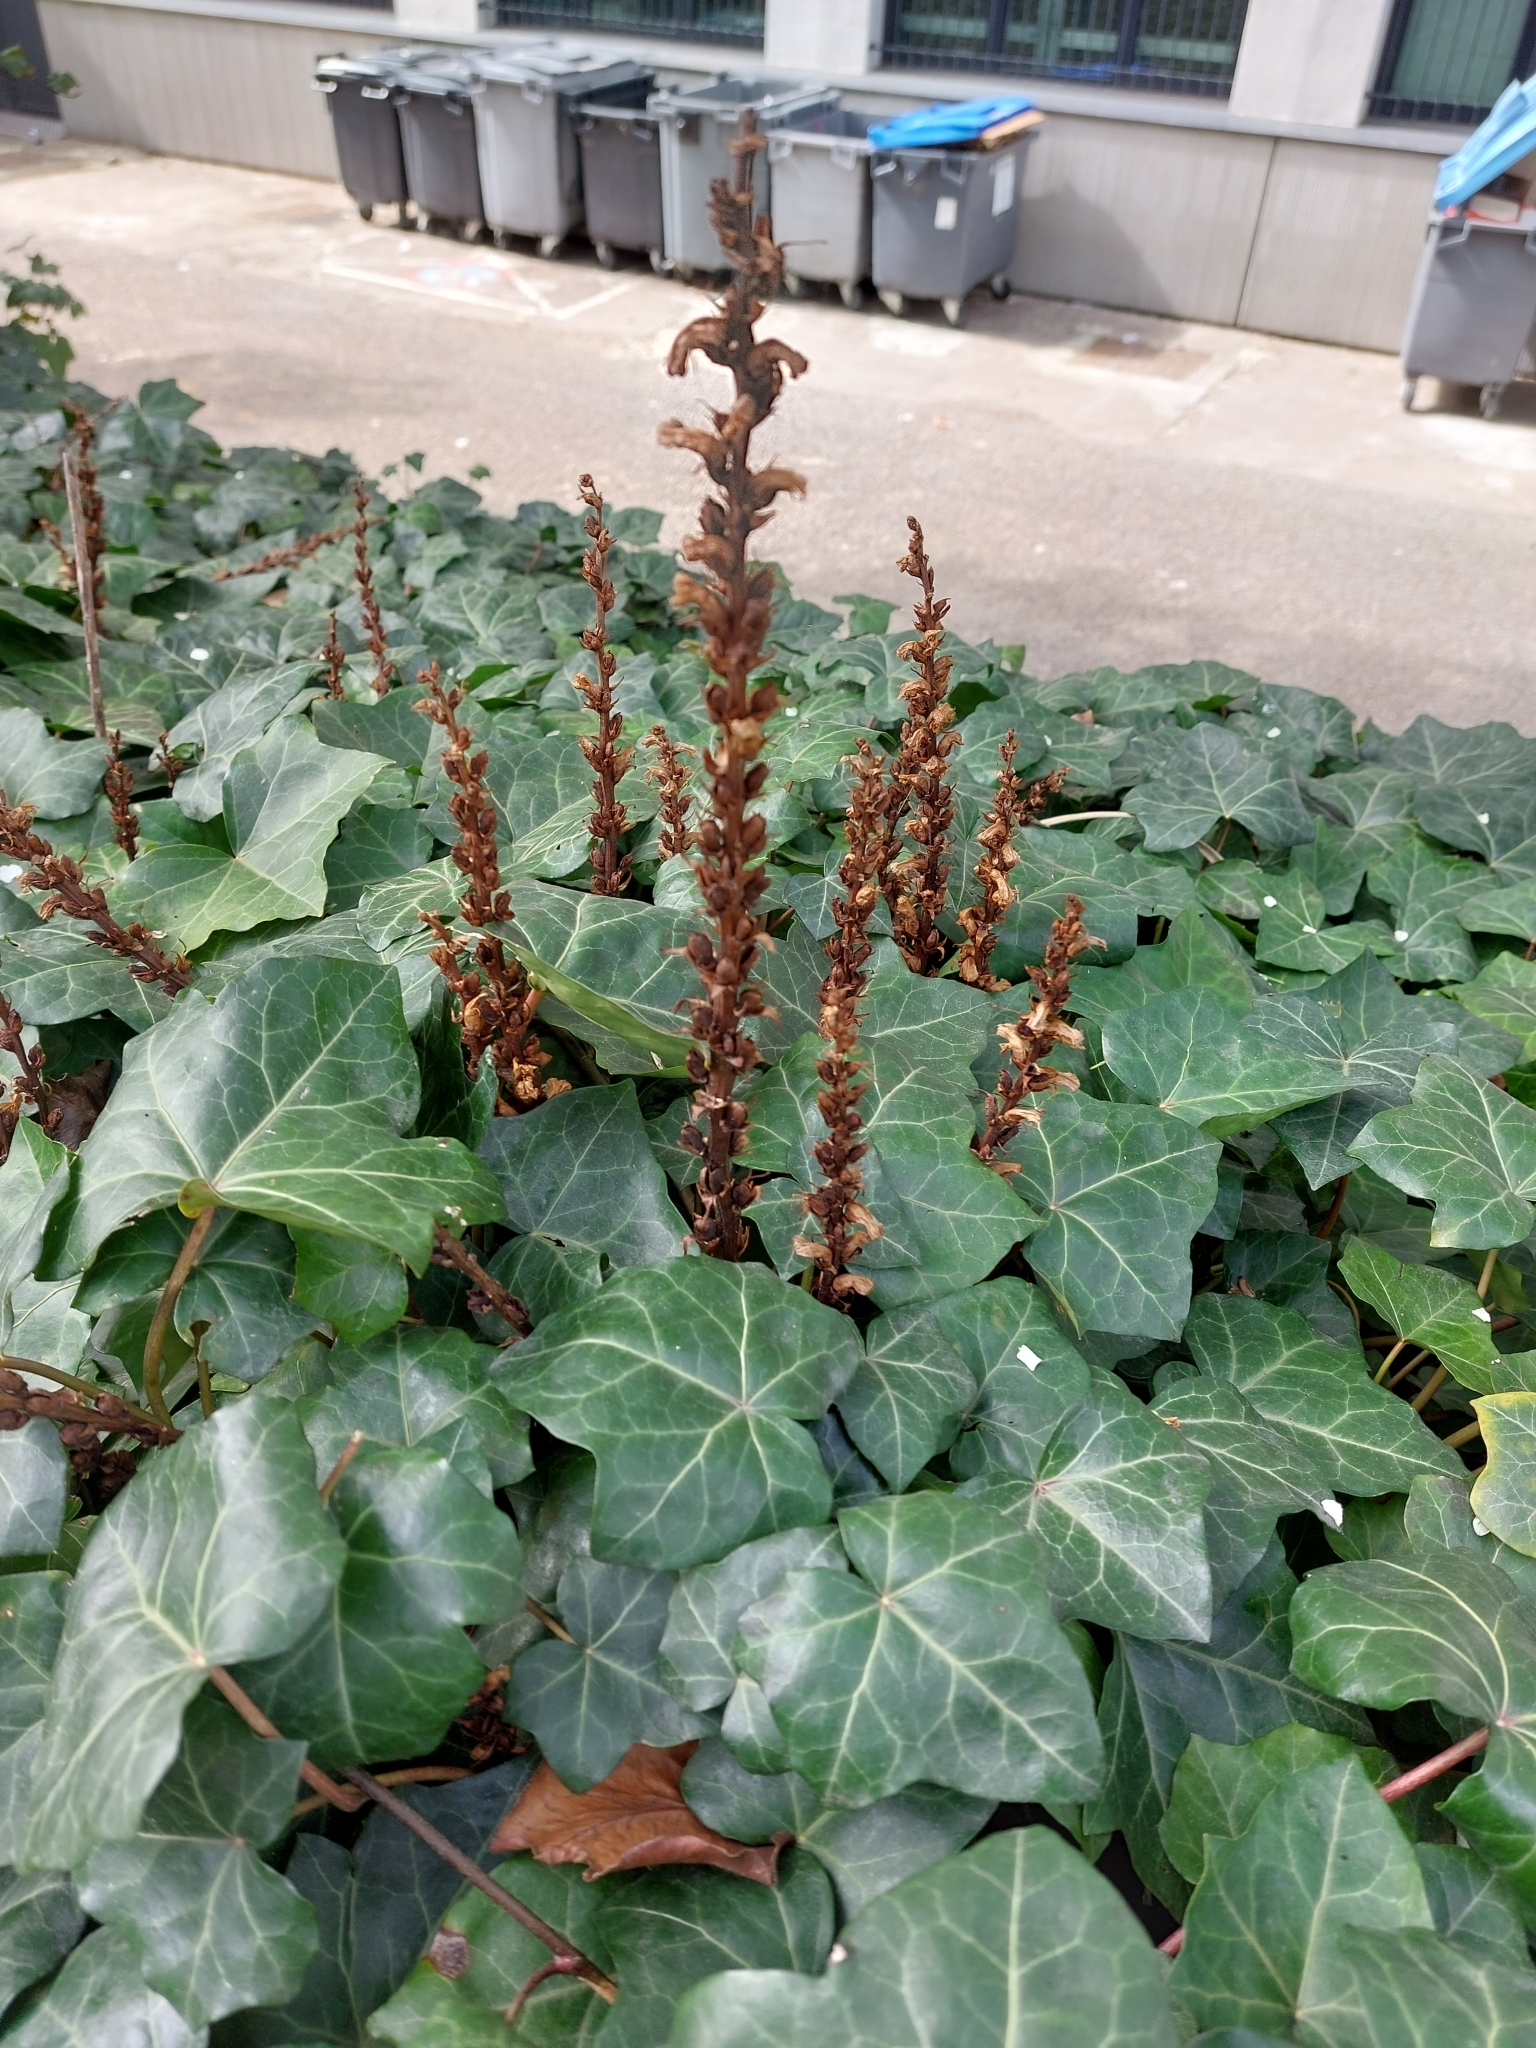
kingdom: Plantae
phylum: Tracheophyta
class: Magnoliopsida
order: Lamiales
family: Orobanchaceae
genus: Orobanche
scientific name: Orobanche hederae
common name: Ivy broomrape
